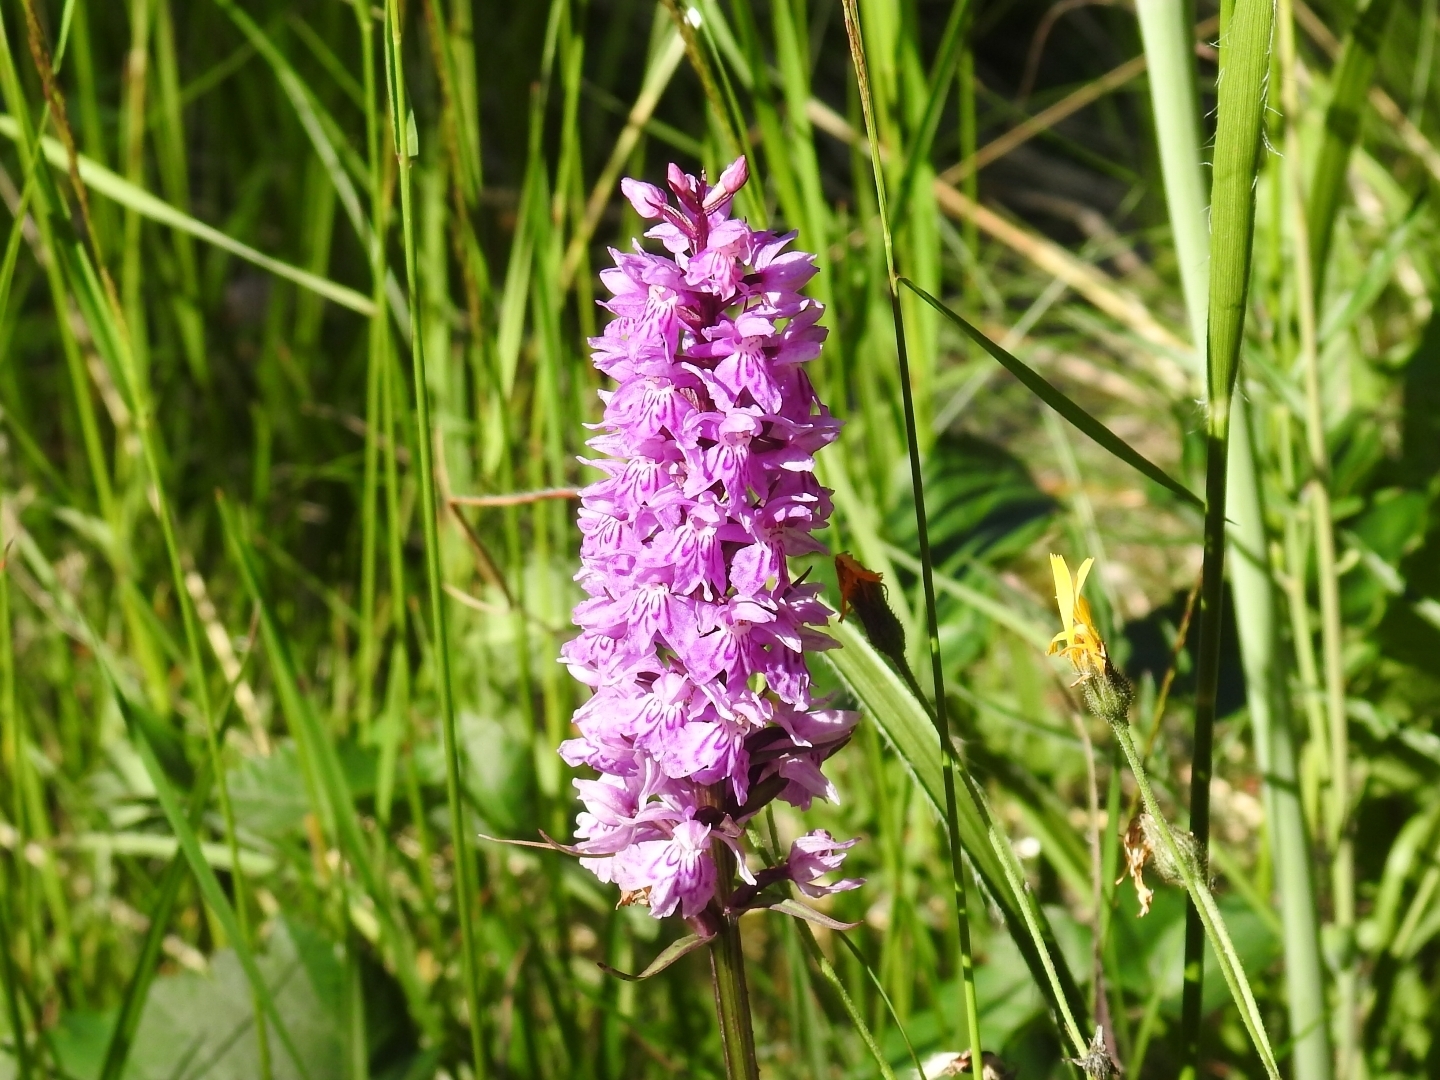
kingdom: Plantae
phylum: Tracheophyta
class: Liliopsida
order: Asparagales
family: Orchidaceae
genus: Dactylorhiza
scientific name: Dactylorhiza maculata
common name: Heath spotted-orchid
